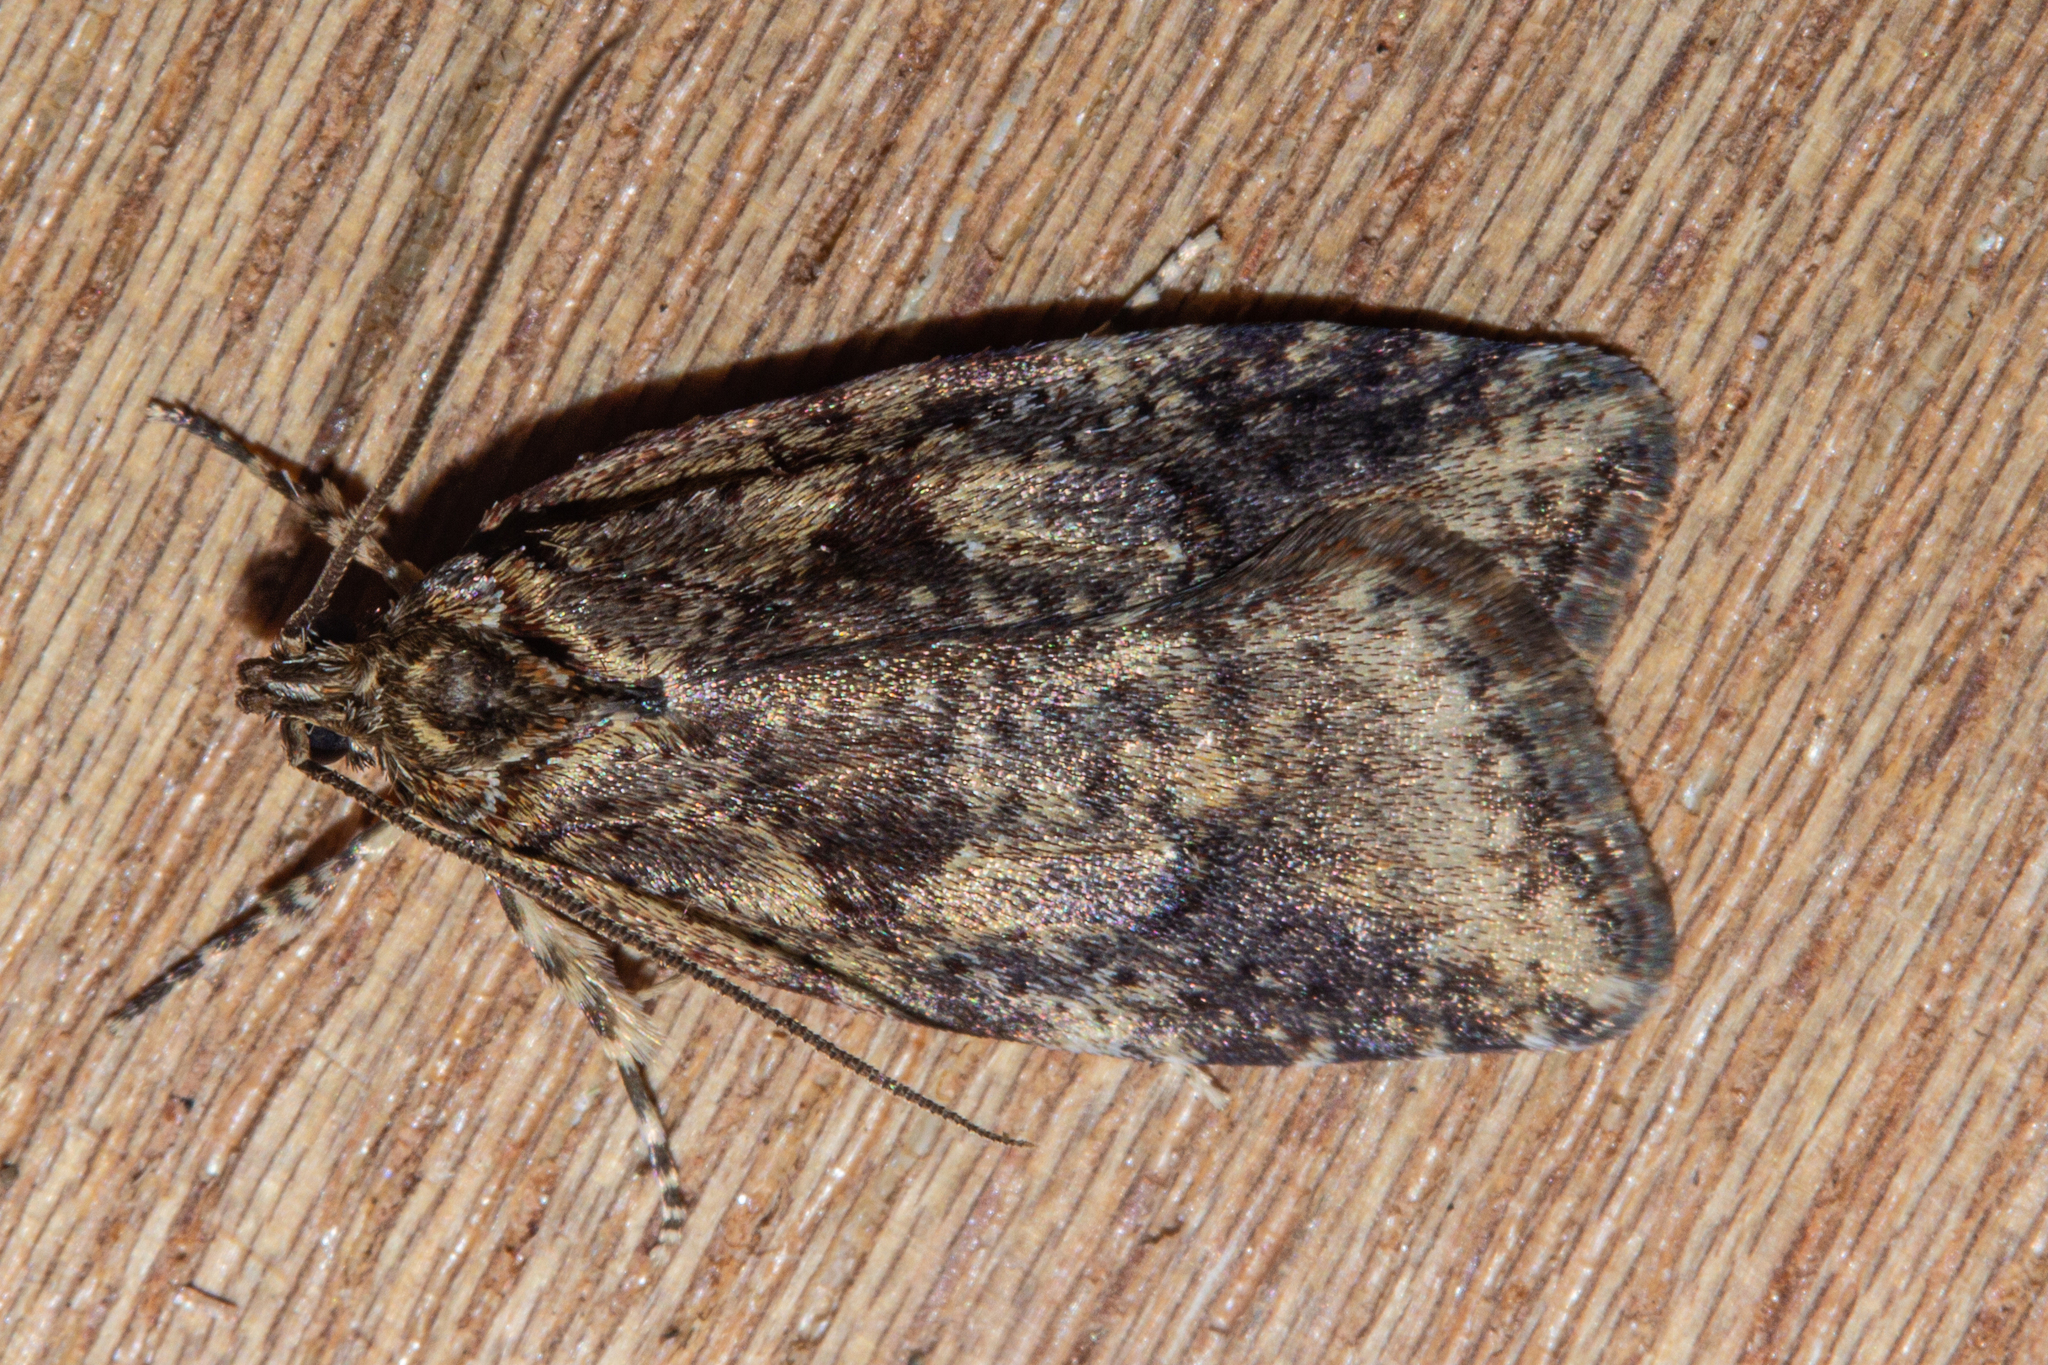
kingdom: Animalia
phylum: Arthropoda
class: Insecta
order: Lepidoptera
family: Oecophoridae
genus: Proteodes
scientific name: Proteodes profunda
